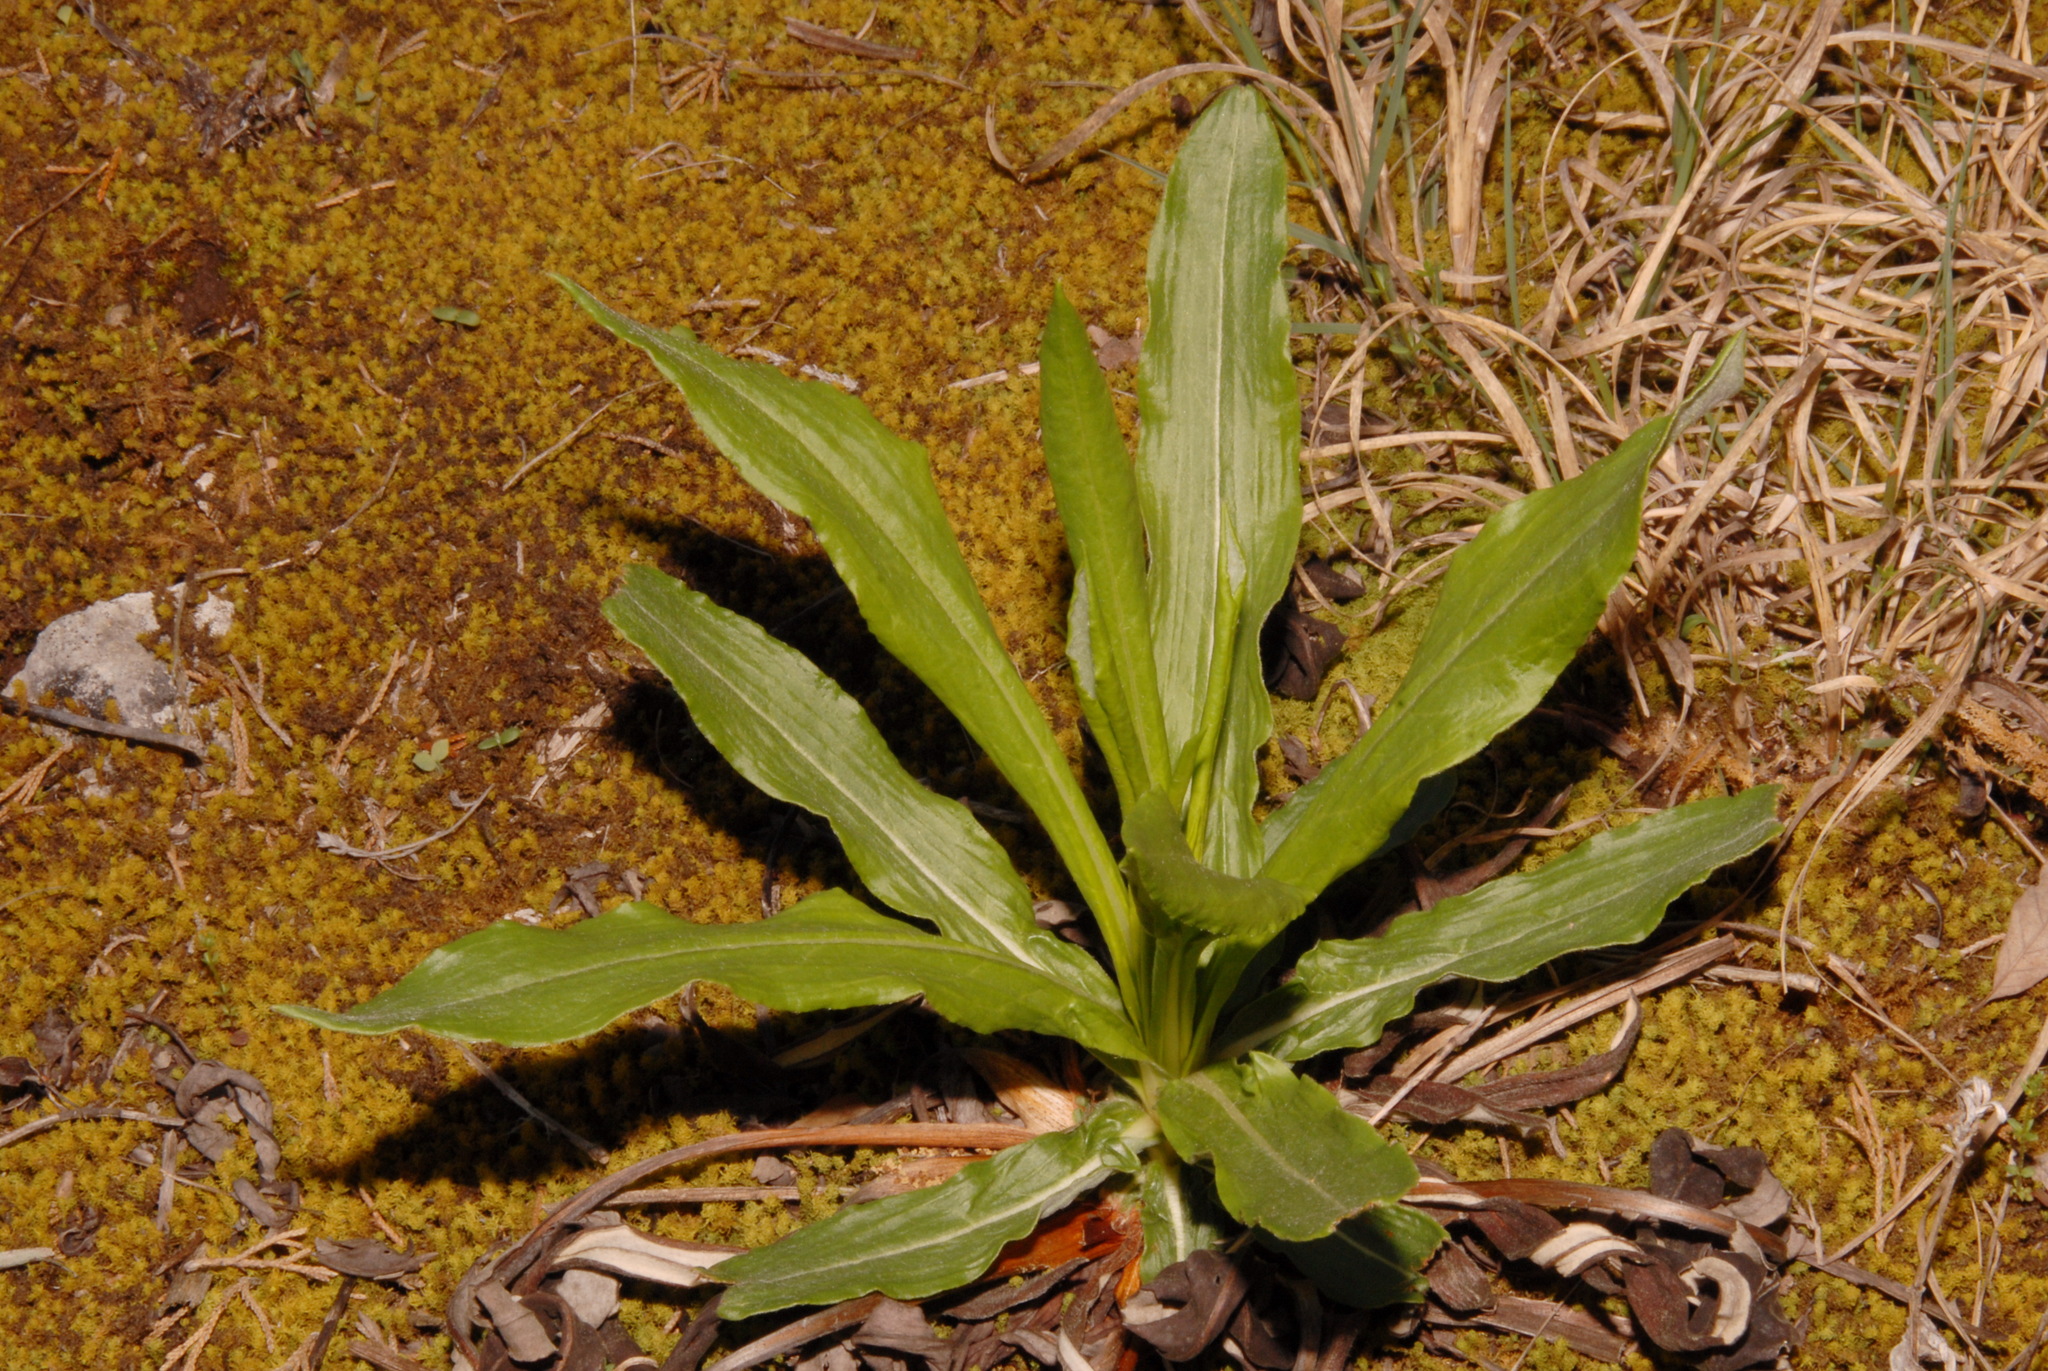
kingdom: Plantae
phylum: Tracheophyta
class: Magnoliopsida
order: Caryophyllales
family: Polygonaceae
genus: Eriogonum
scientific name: Eriogonum longifolium
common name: Longleaf wild buckwheat
